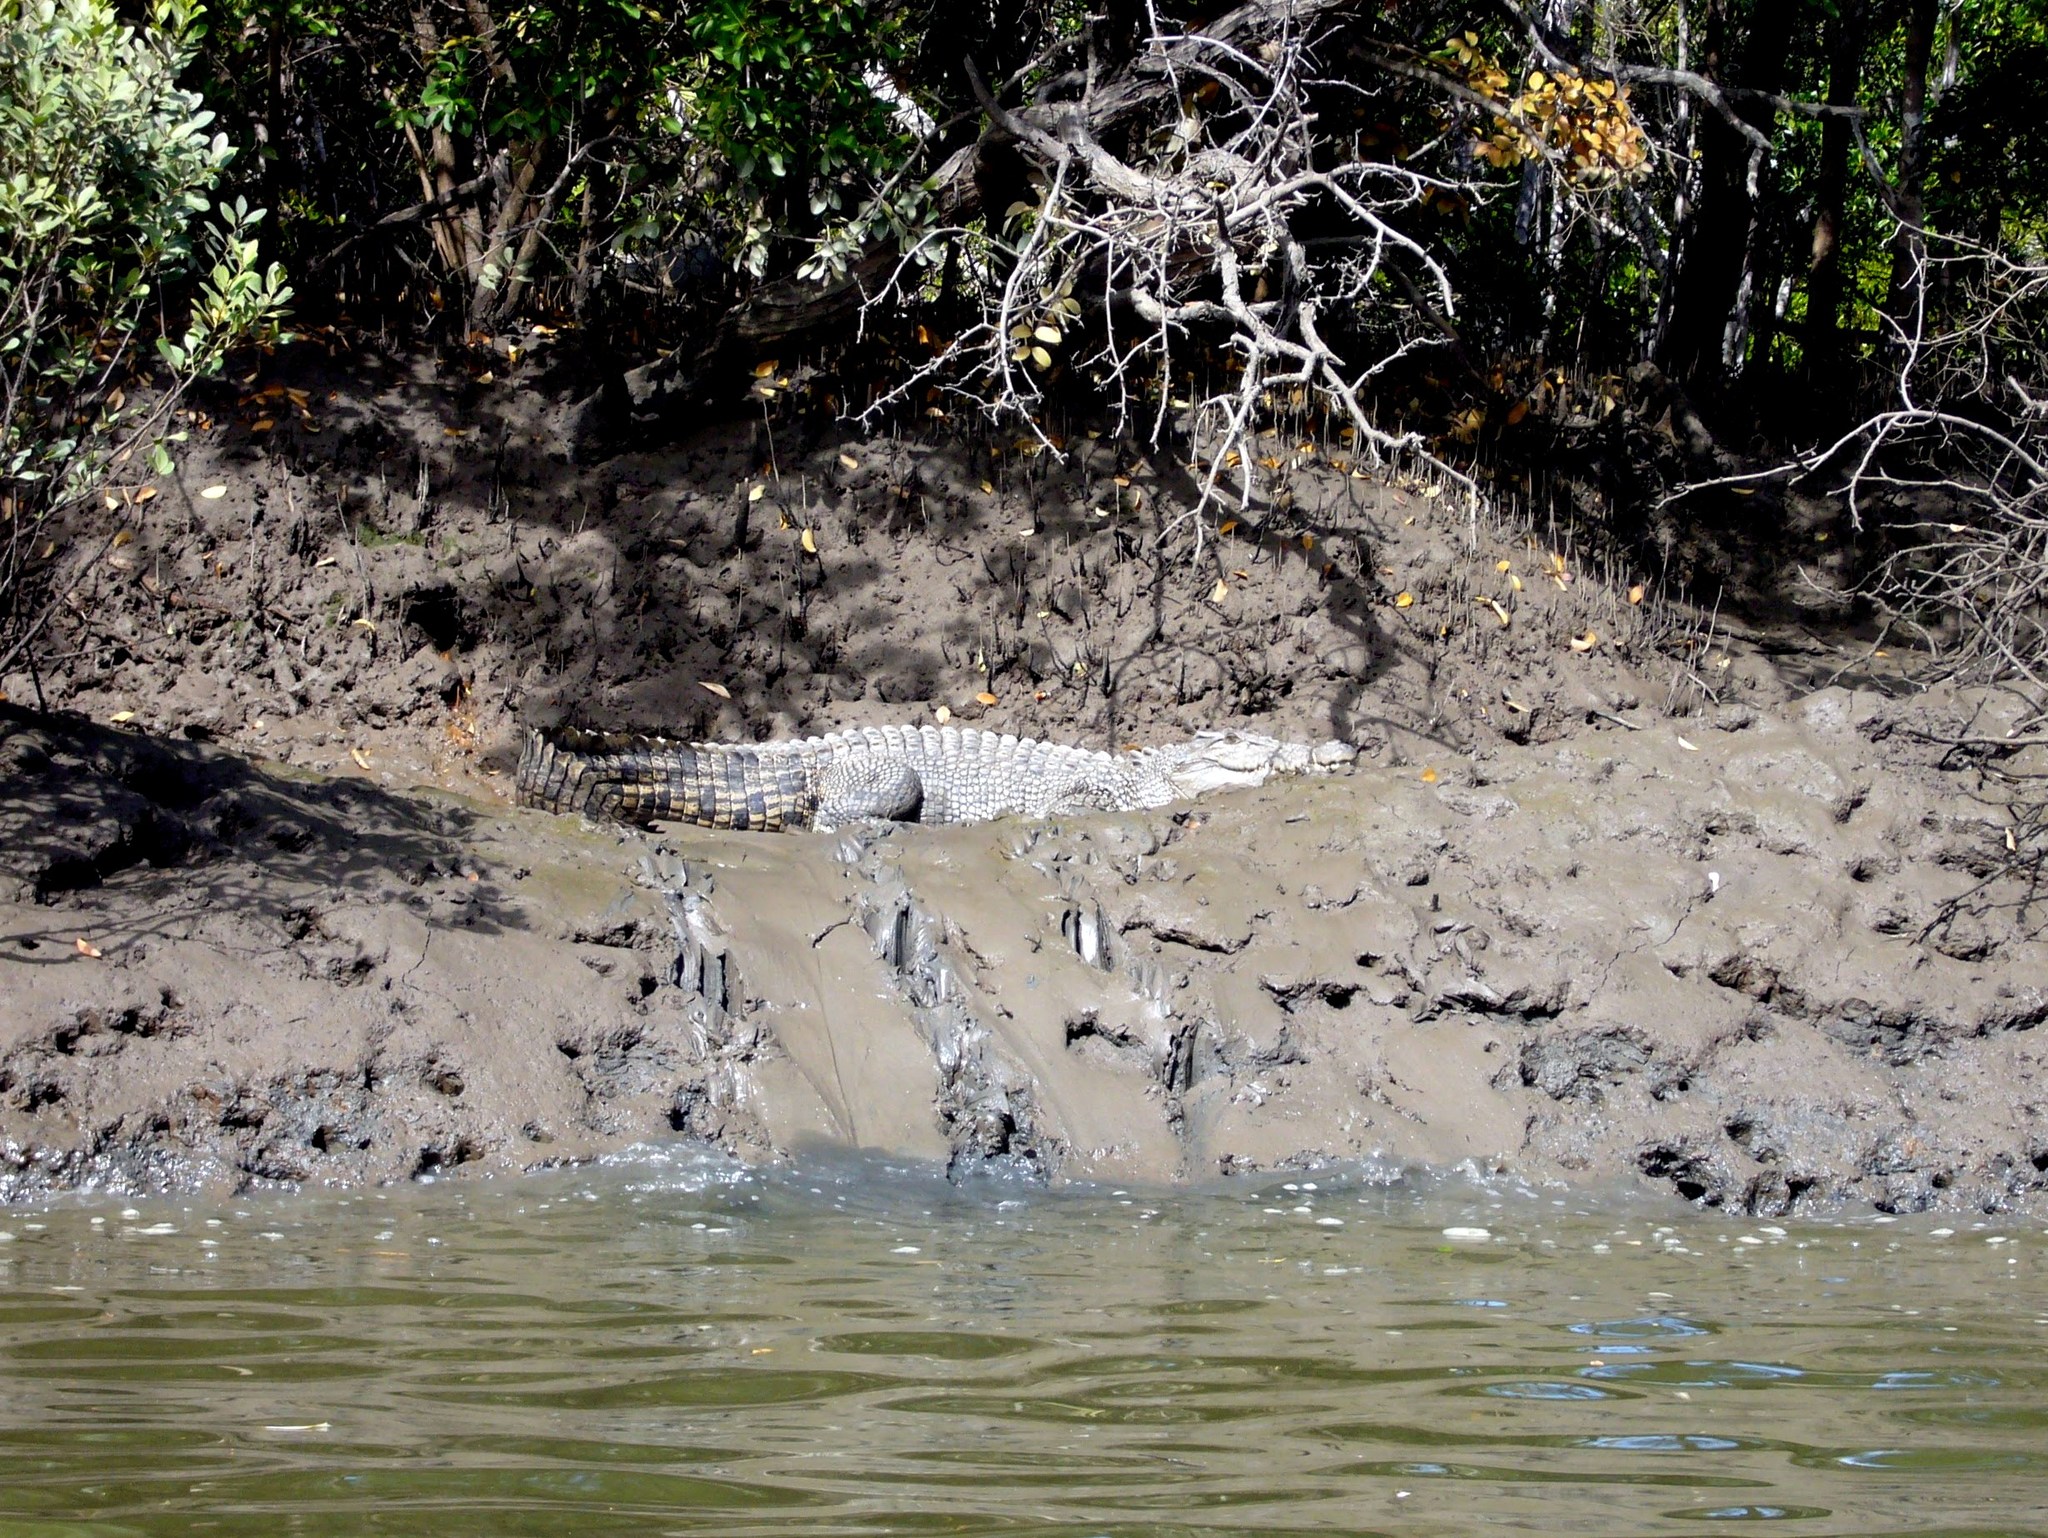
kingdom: Animalia
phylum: Chordata
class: Crocodylia
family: Crocodylidae
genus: Crocodylus
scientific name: Crocodylus porosus
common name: Saltwater crocodile
